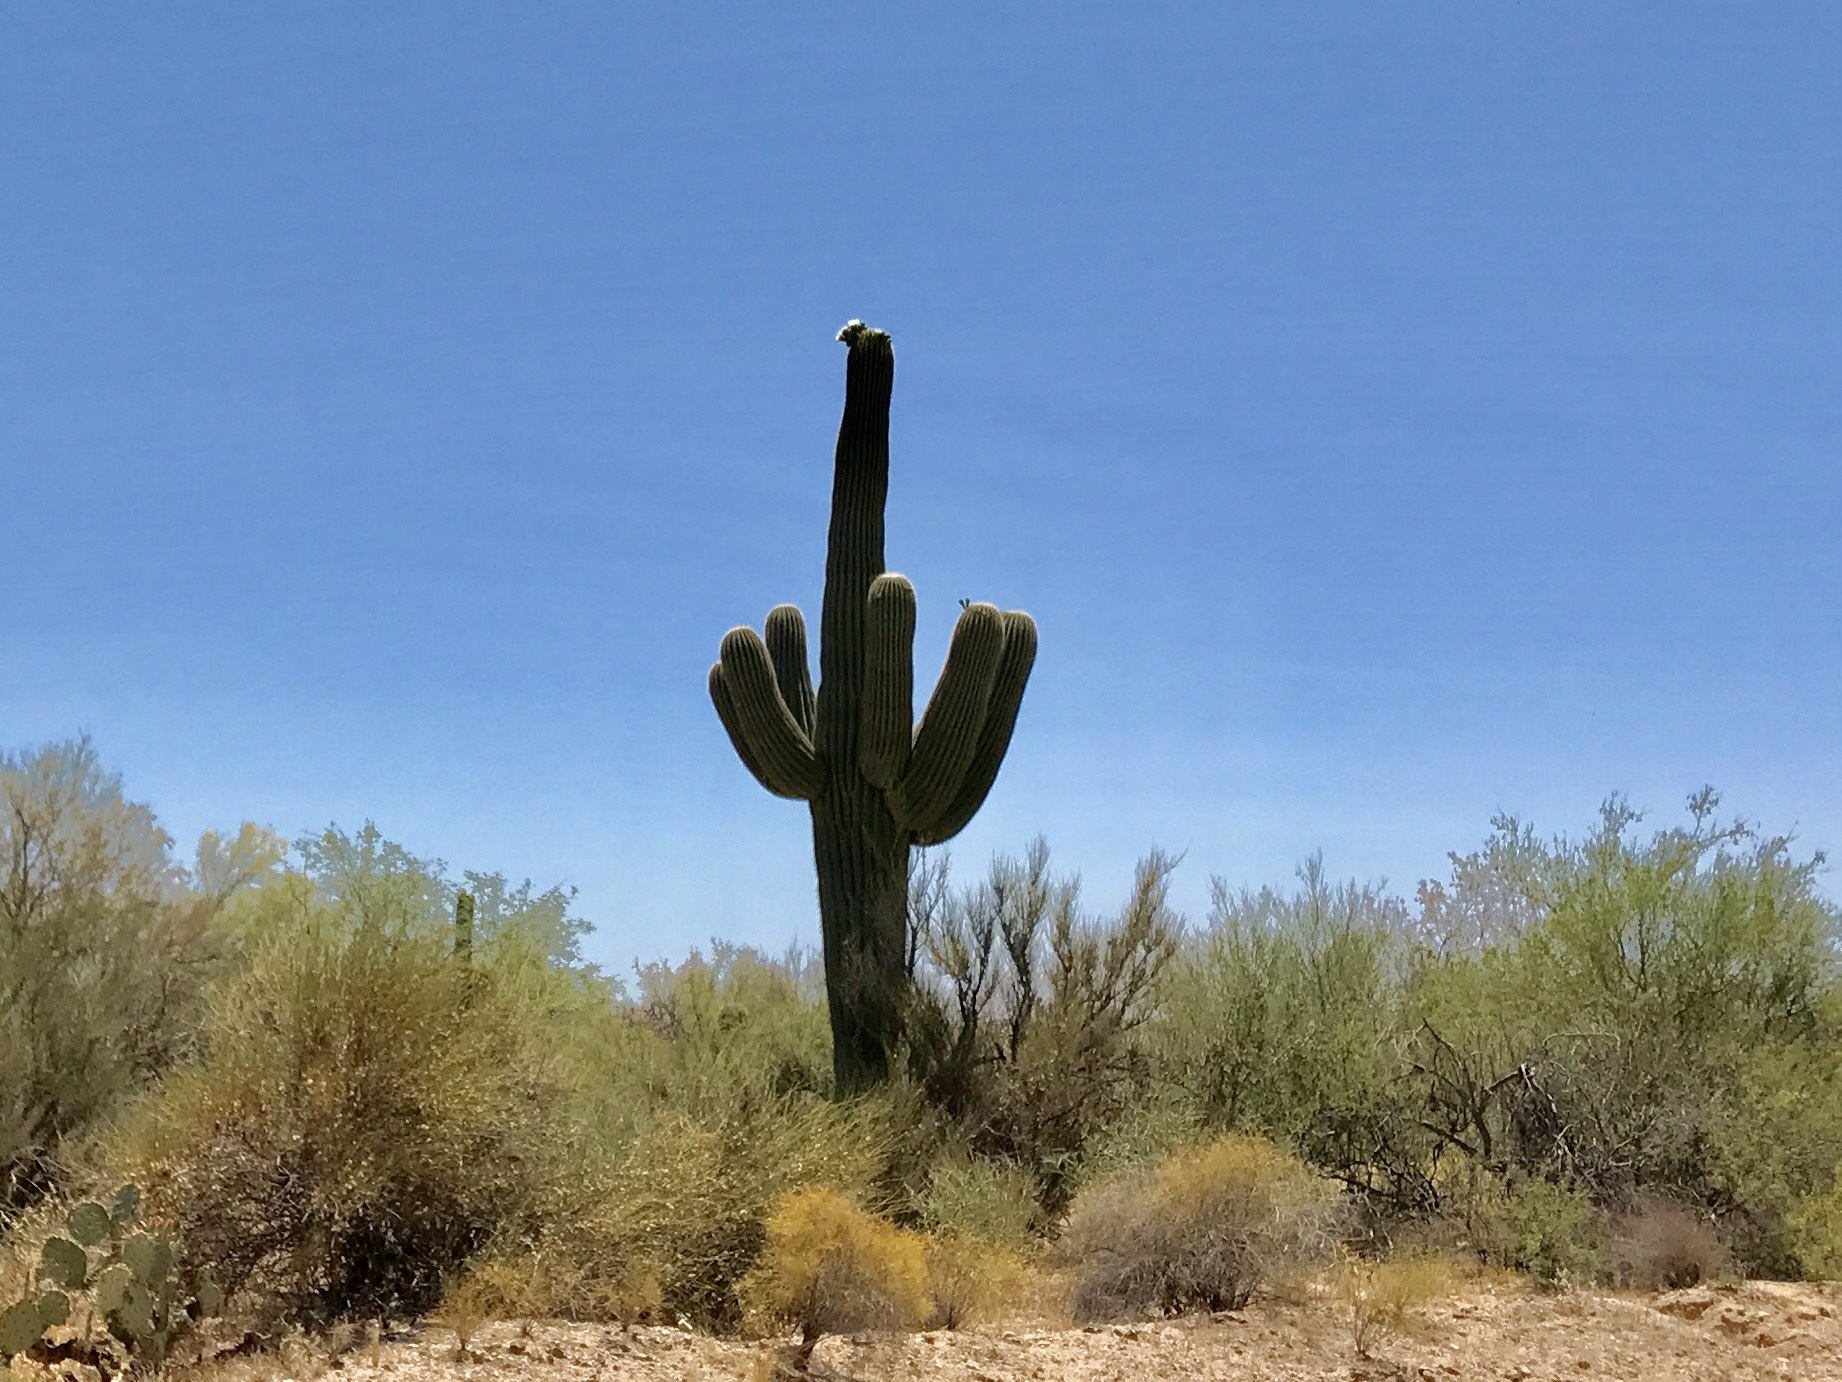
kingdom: Plantae
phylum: Tracheophyta
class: Magnoliopsida
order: Caryophyllales
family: Cactaceae
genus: Carnegiea
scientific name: Carnegiea gigantea
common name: Saguaro
